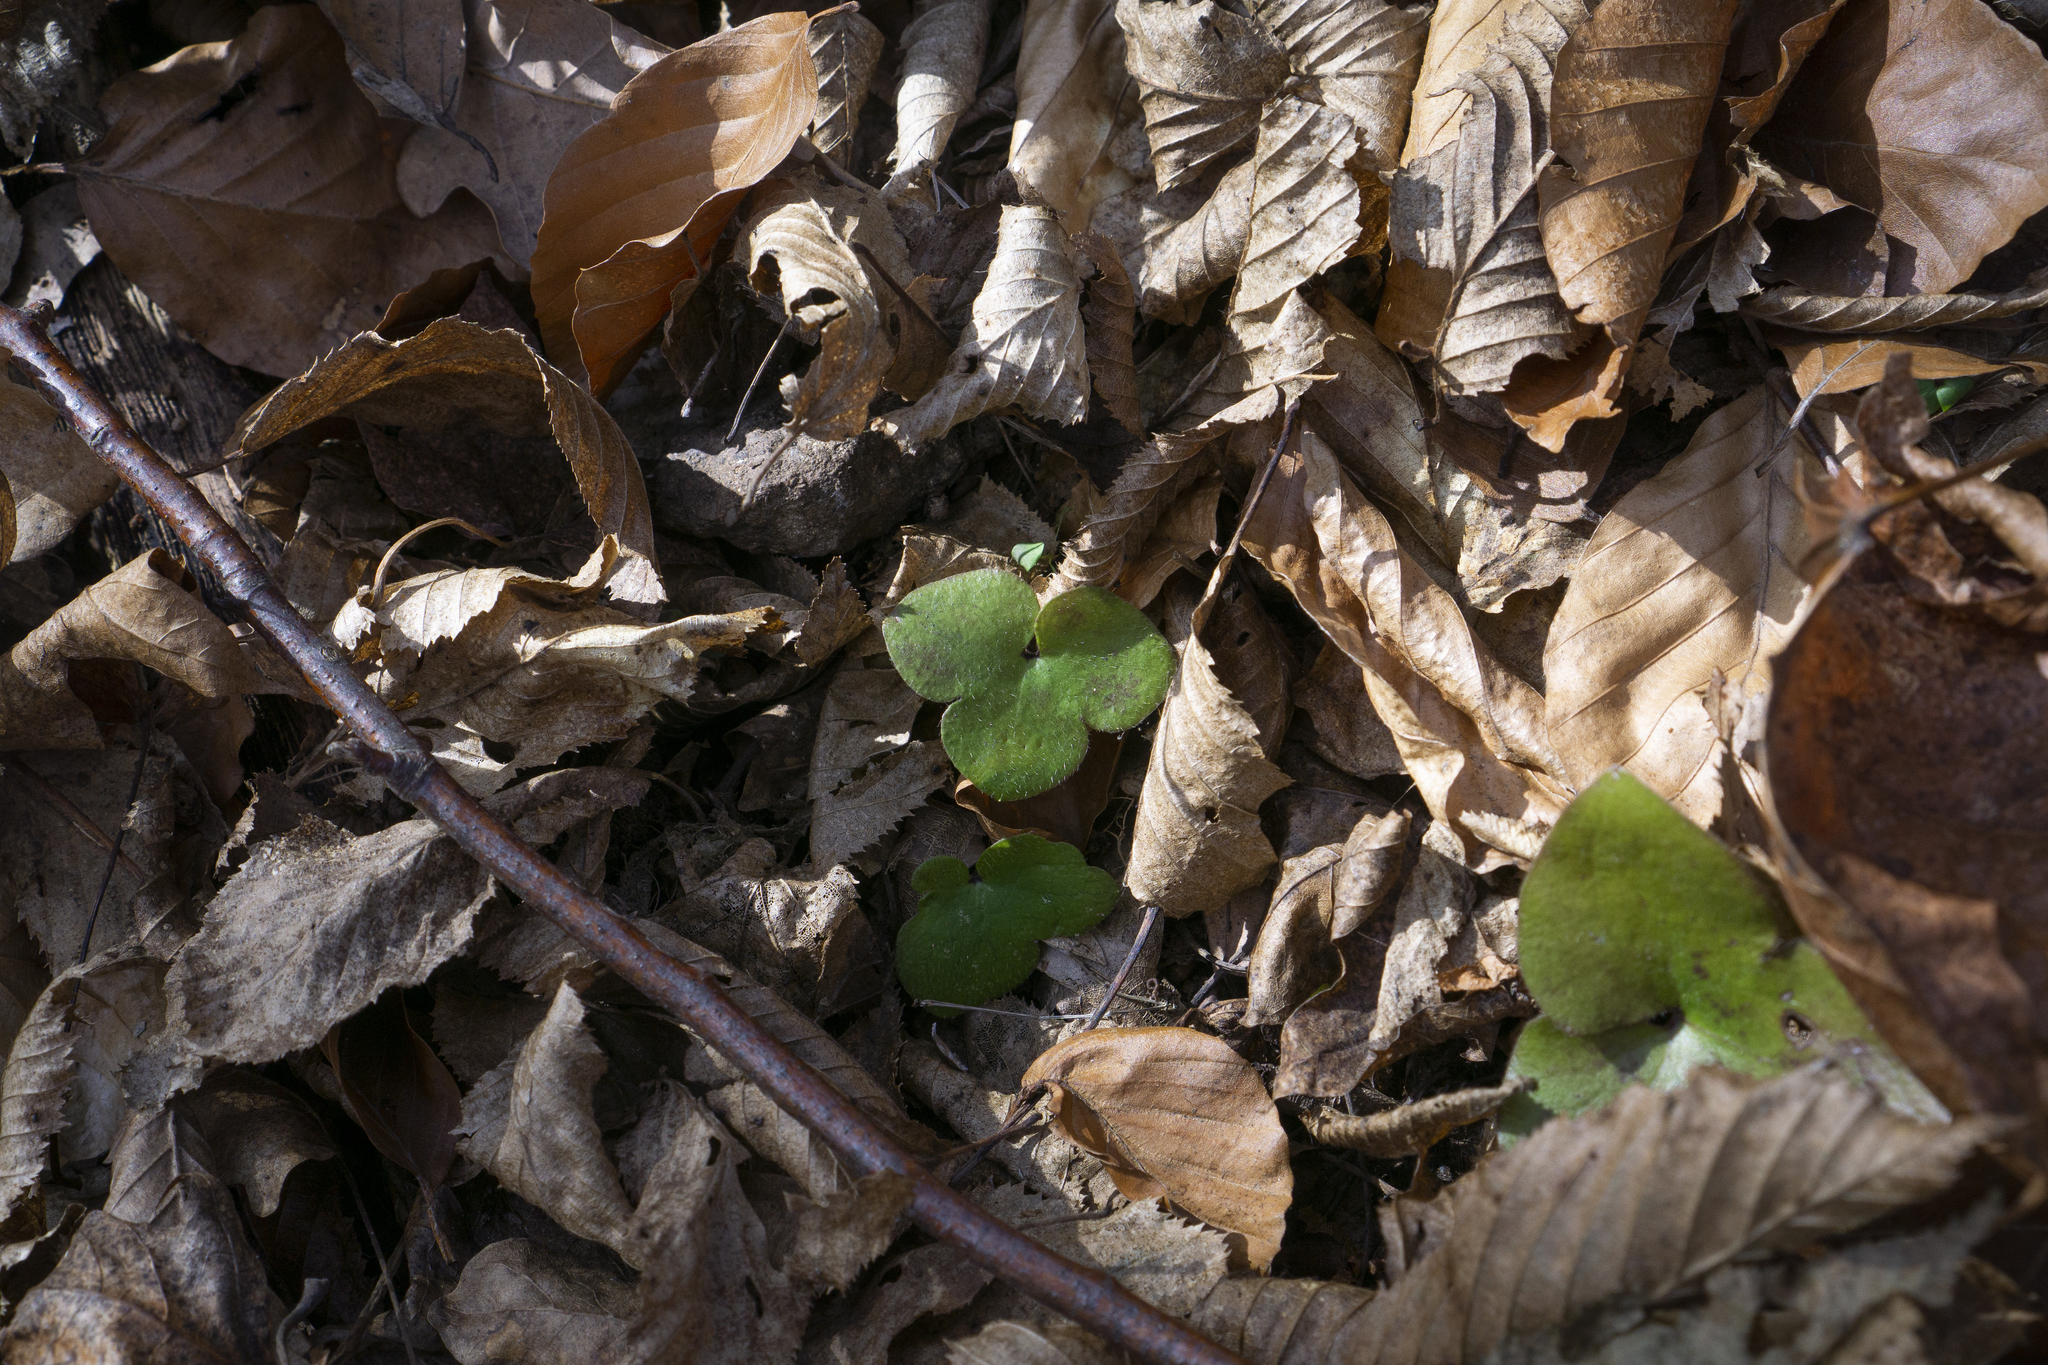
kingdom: Plantae
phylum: Tracheophyta
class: Magnoliopsida
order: Ranunculales
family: Ranunculaceae
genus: Hepatica
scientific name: Hepatica nobilis
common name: Liverleaf
